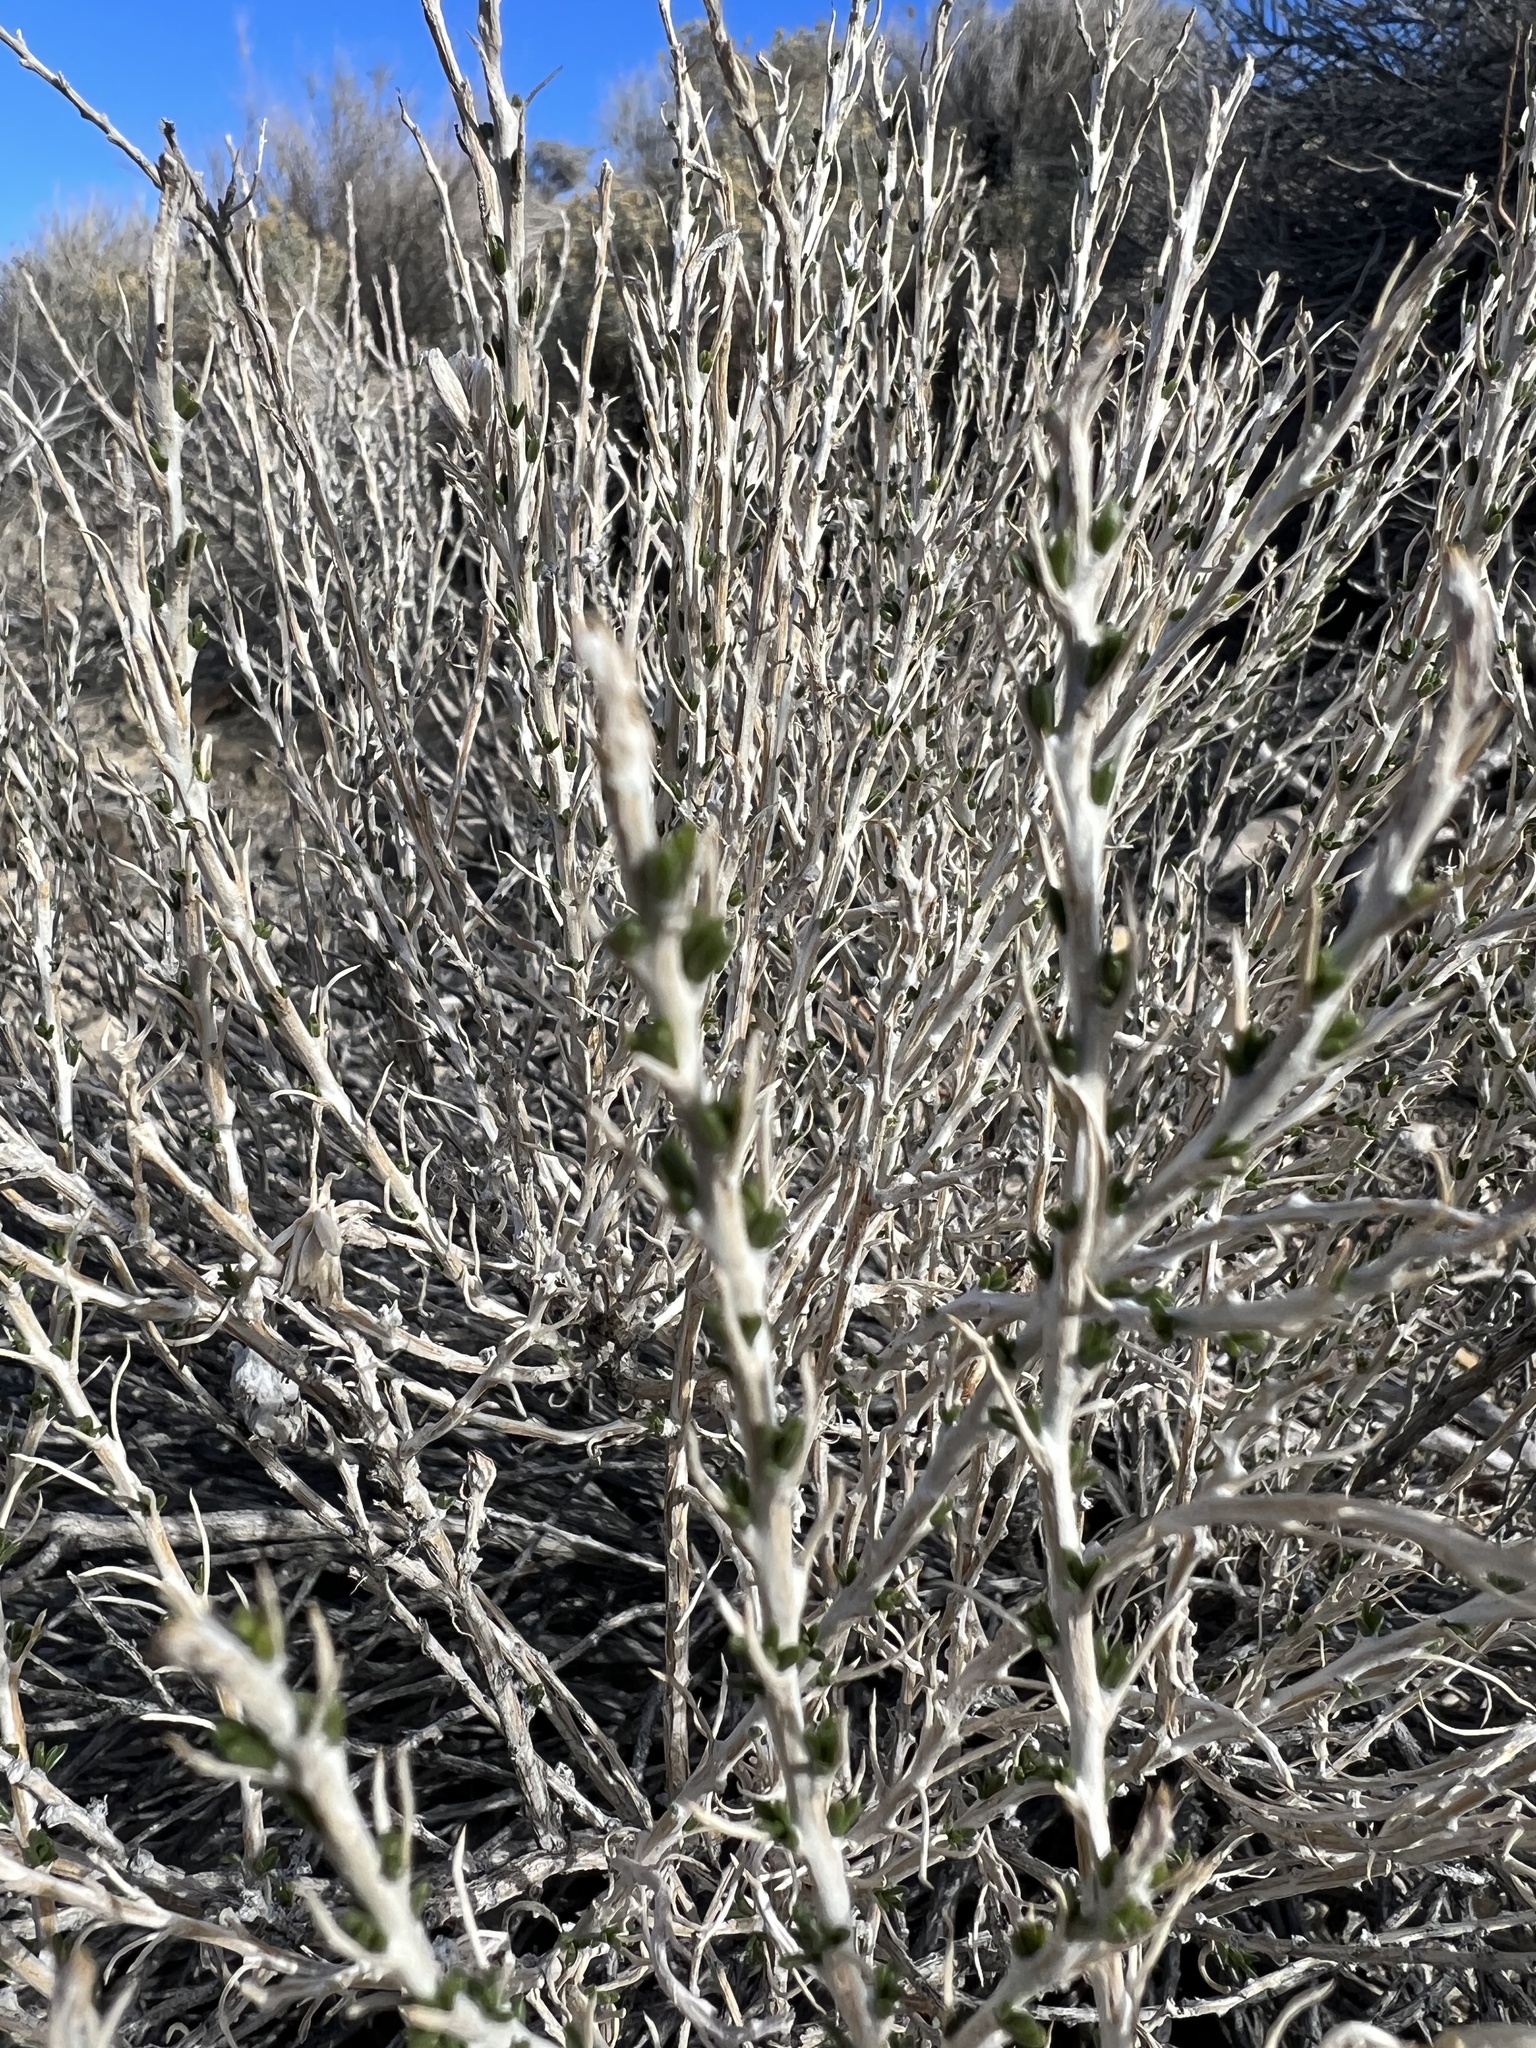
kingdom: Plantae
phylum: Tracheophyta
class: Magnoliopsida
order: Asterales
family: Asteraceae
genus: Tetradymia
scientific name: Tetradymia glabrata
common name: Smooth tetradymia
